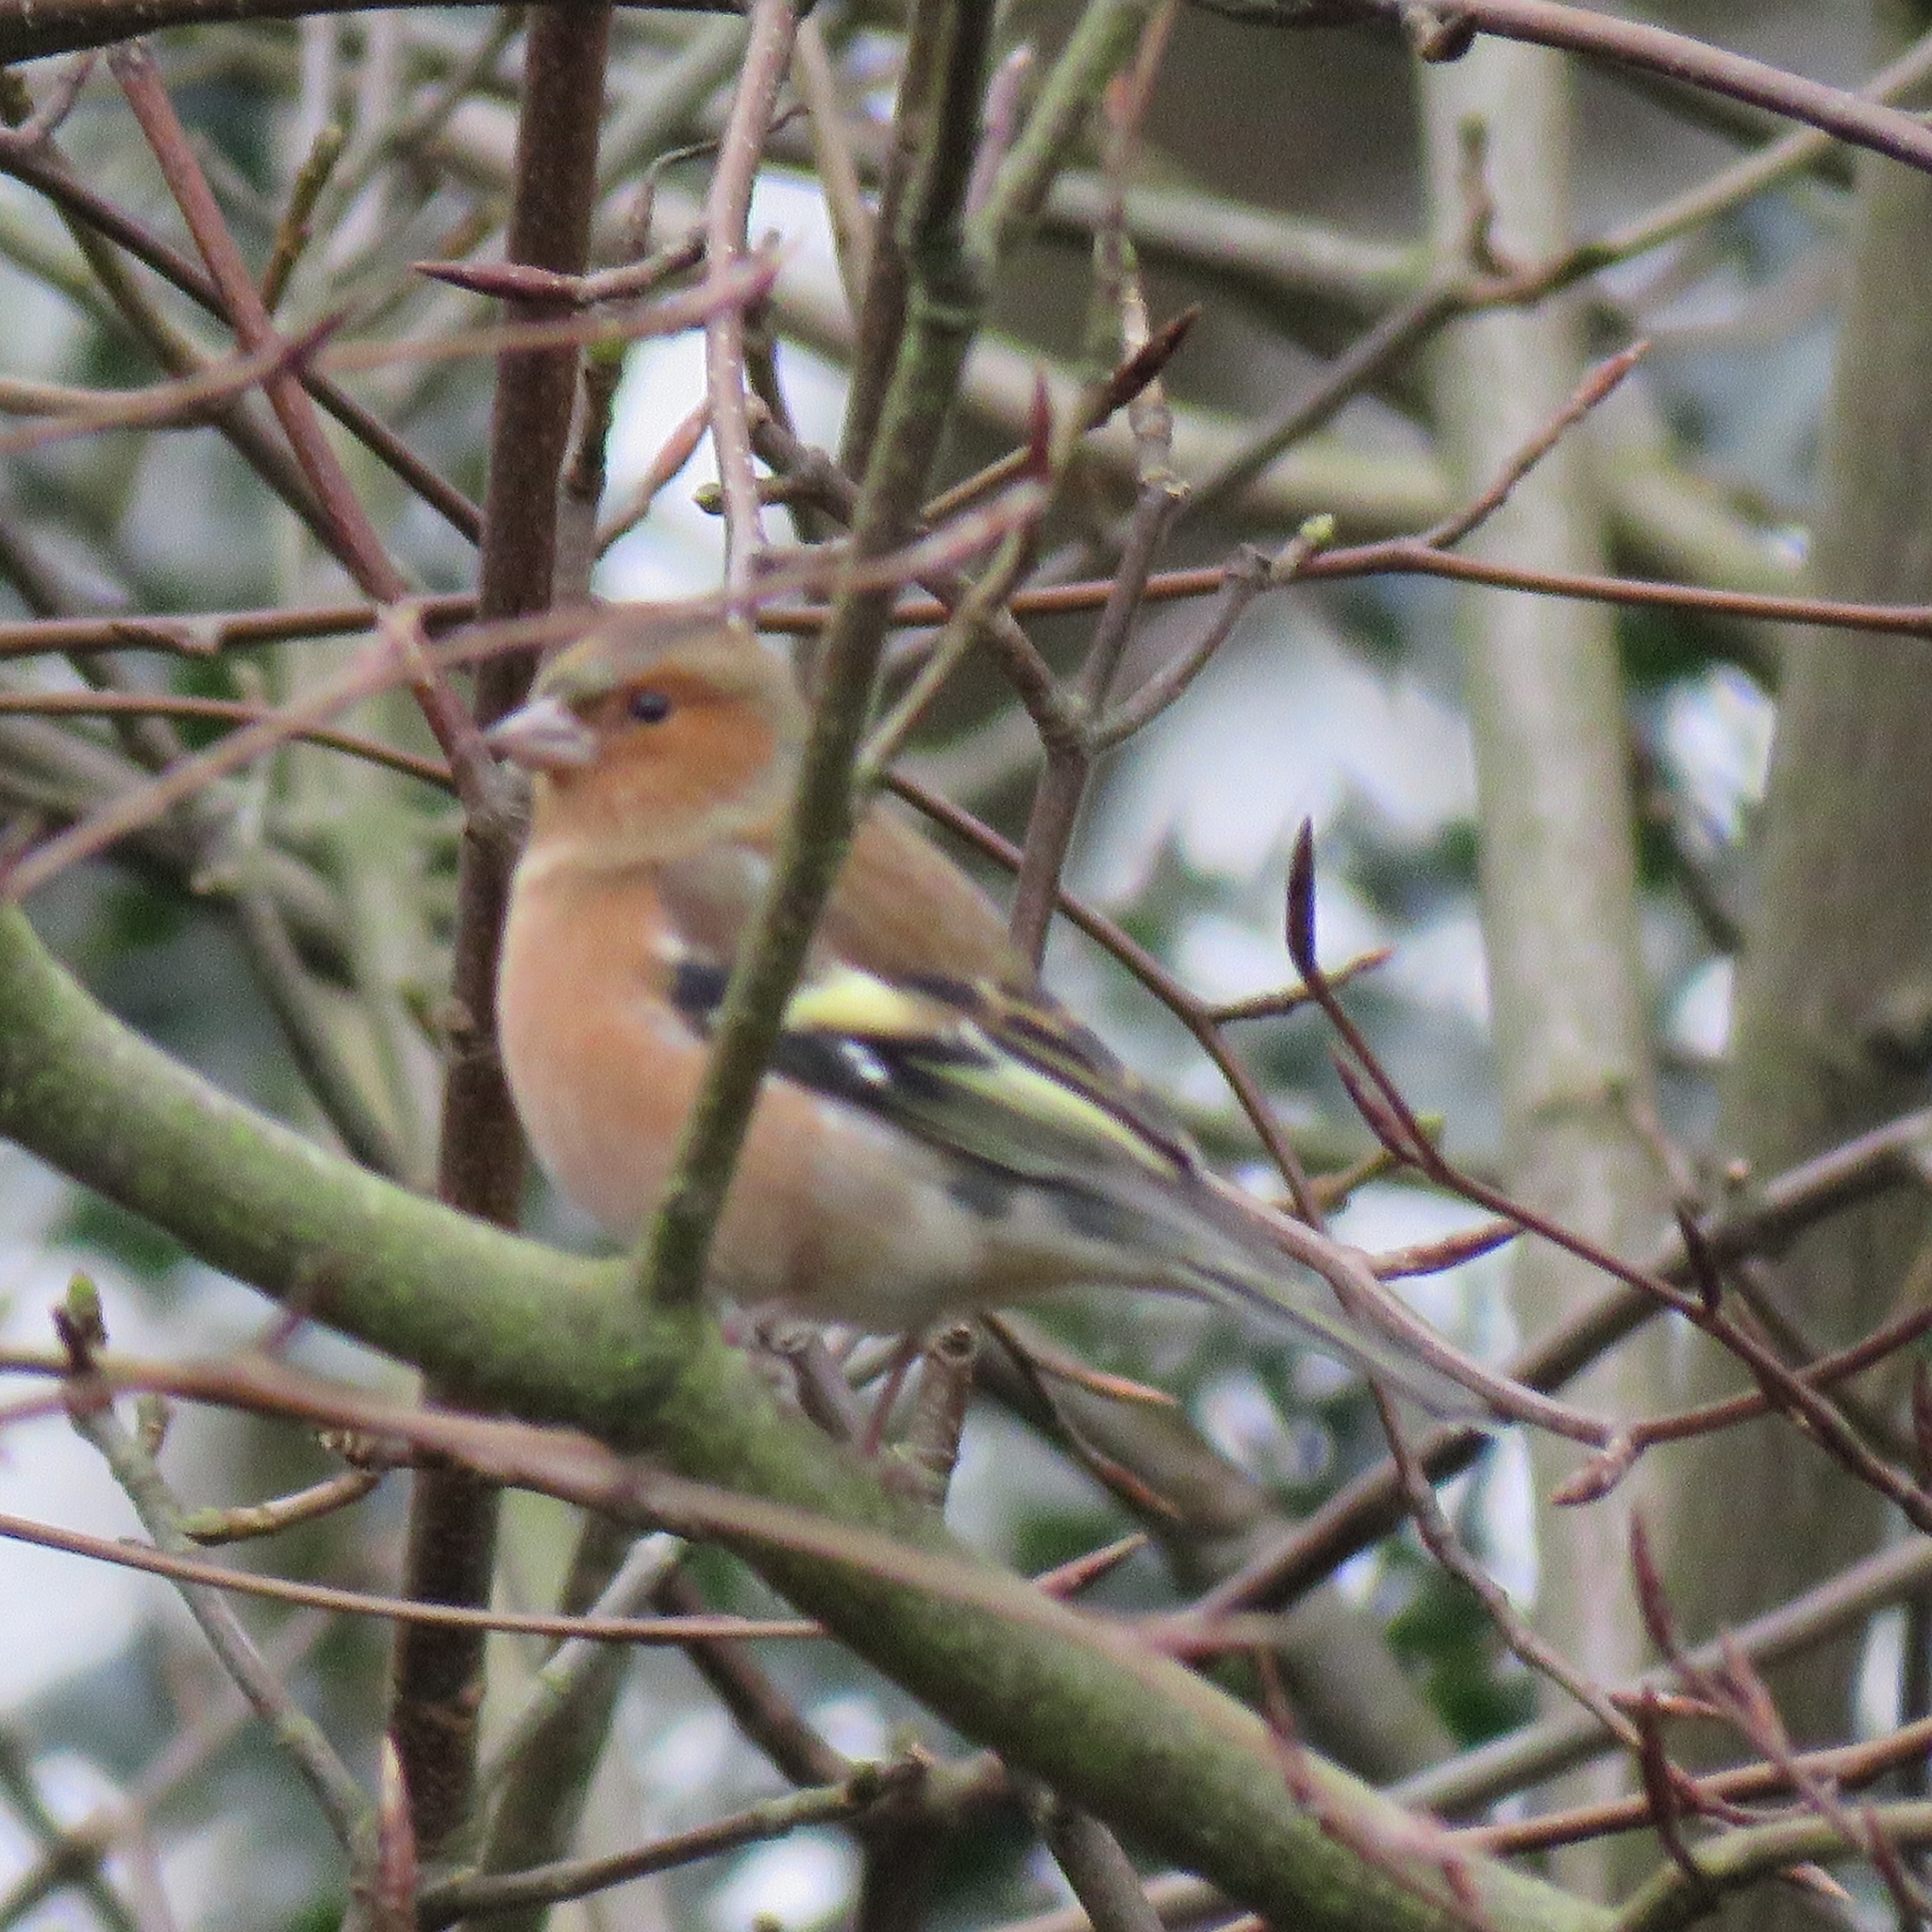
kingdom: Animalia
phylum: Chordata
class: Aves
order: Passeriformes
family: Fringillidae
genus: Fringilla
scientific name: Fringilla coelebs
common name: Common chaffinch
